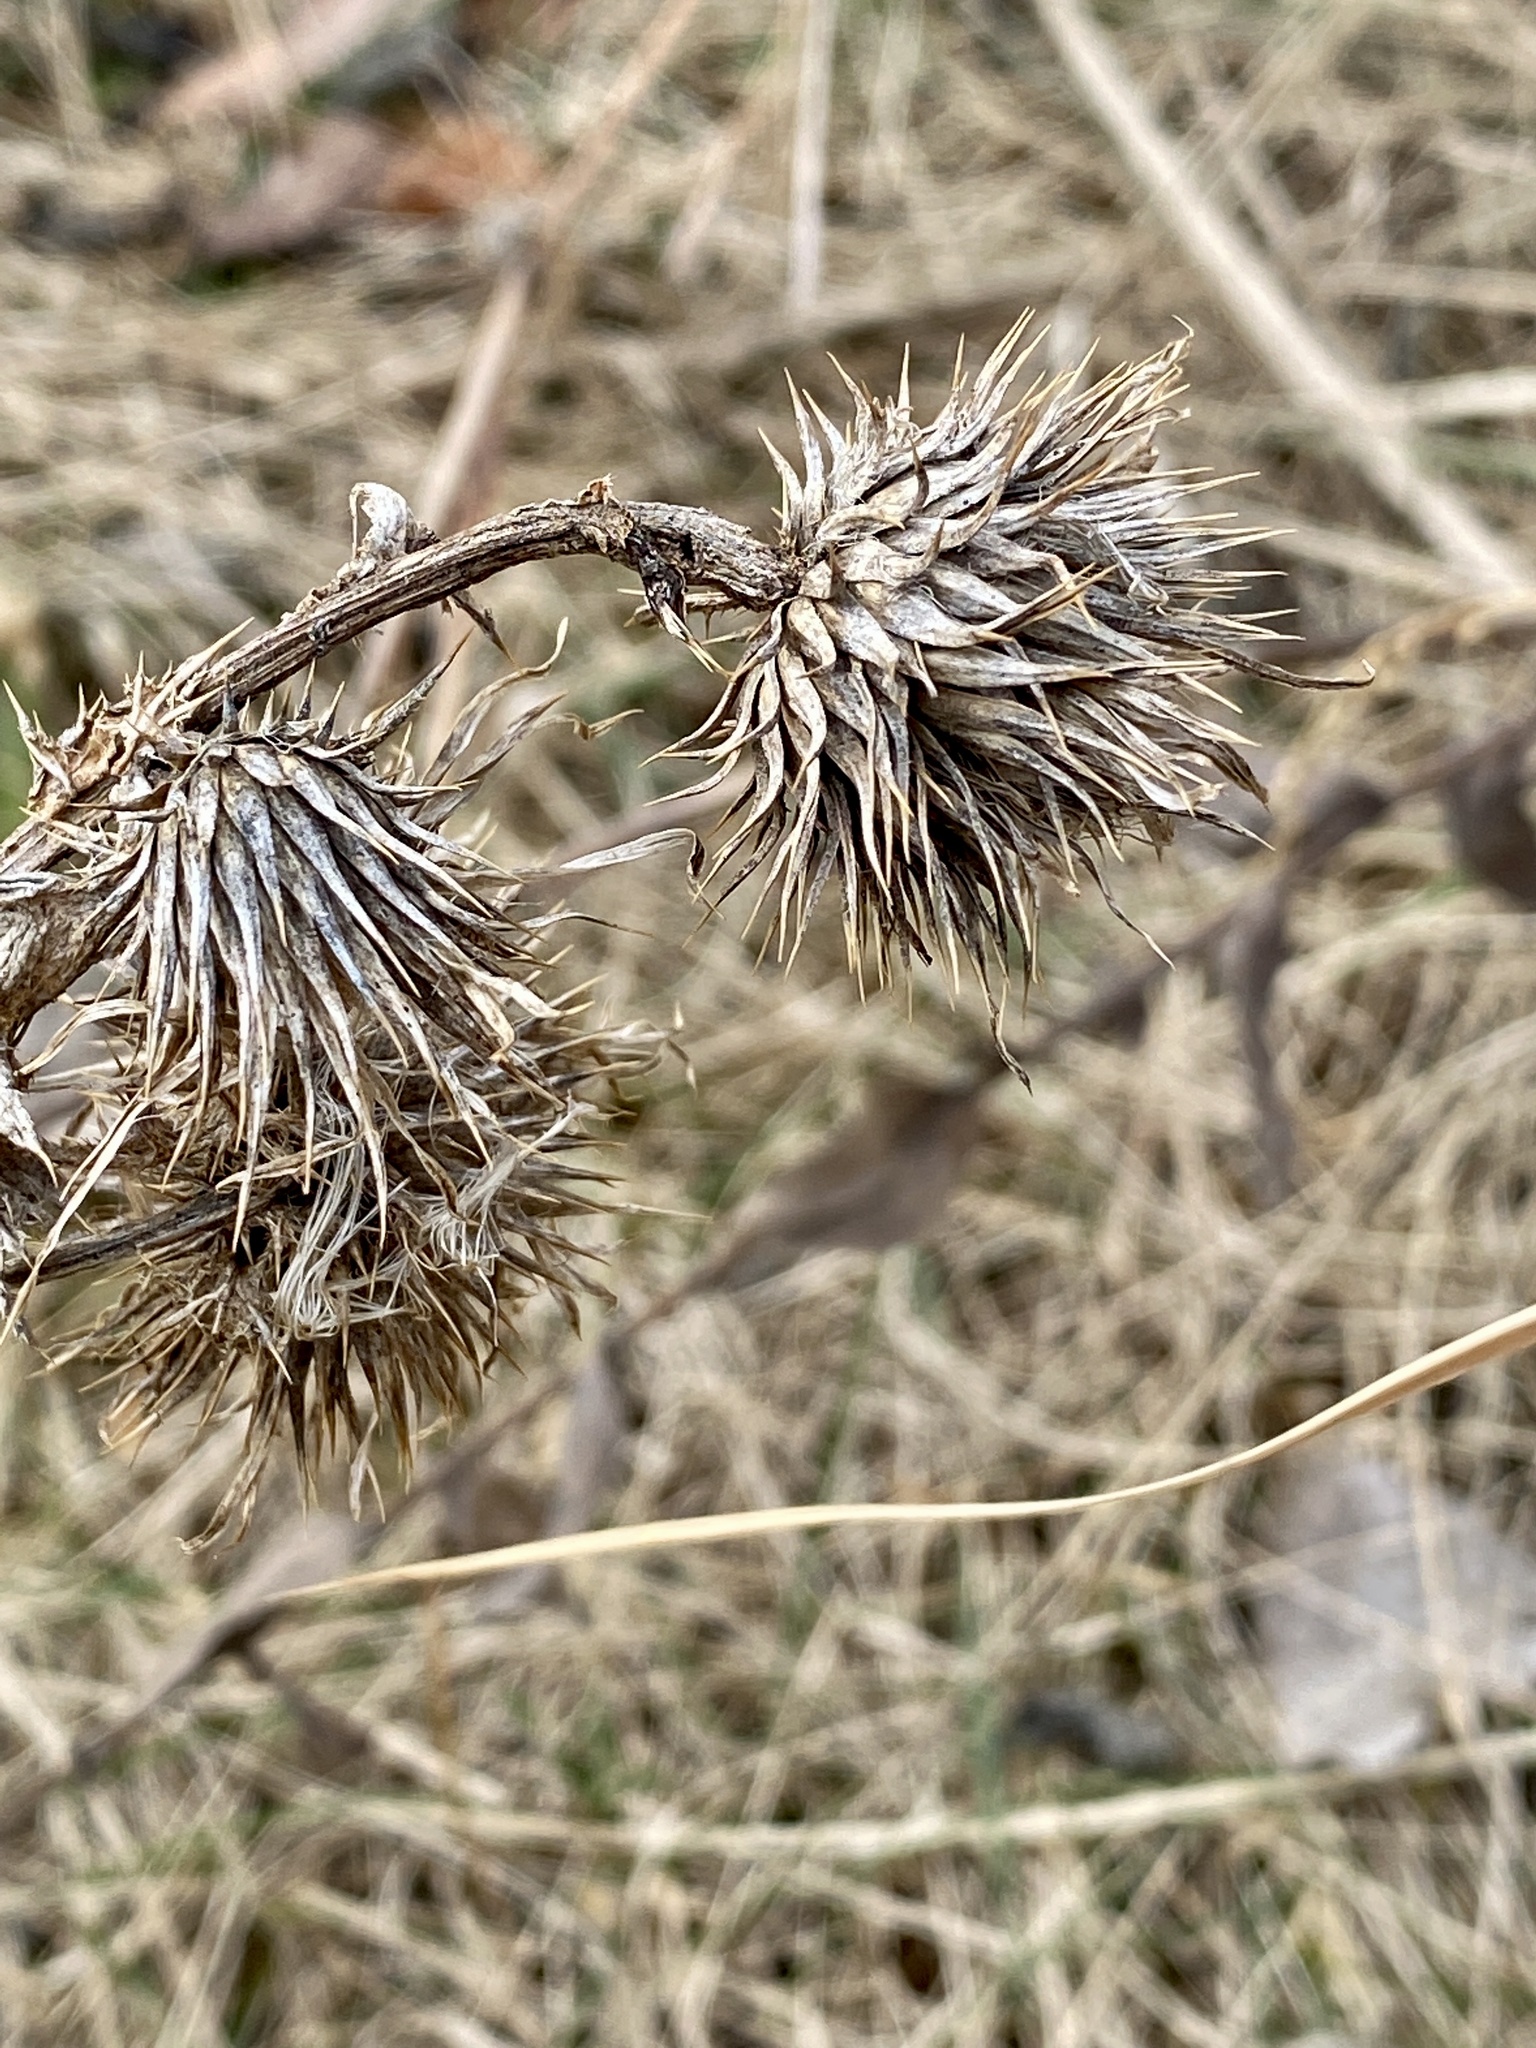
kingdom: Plantae
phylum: Tracheophyta
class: Magnoliopsida
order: Asterales
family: Asteraceae
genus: Cirsium
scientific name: Cirsium vulgare
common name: Bull thistle
